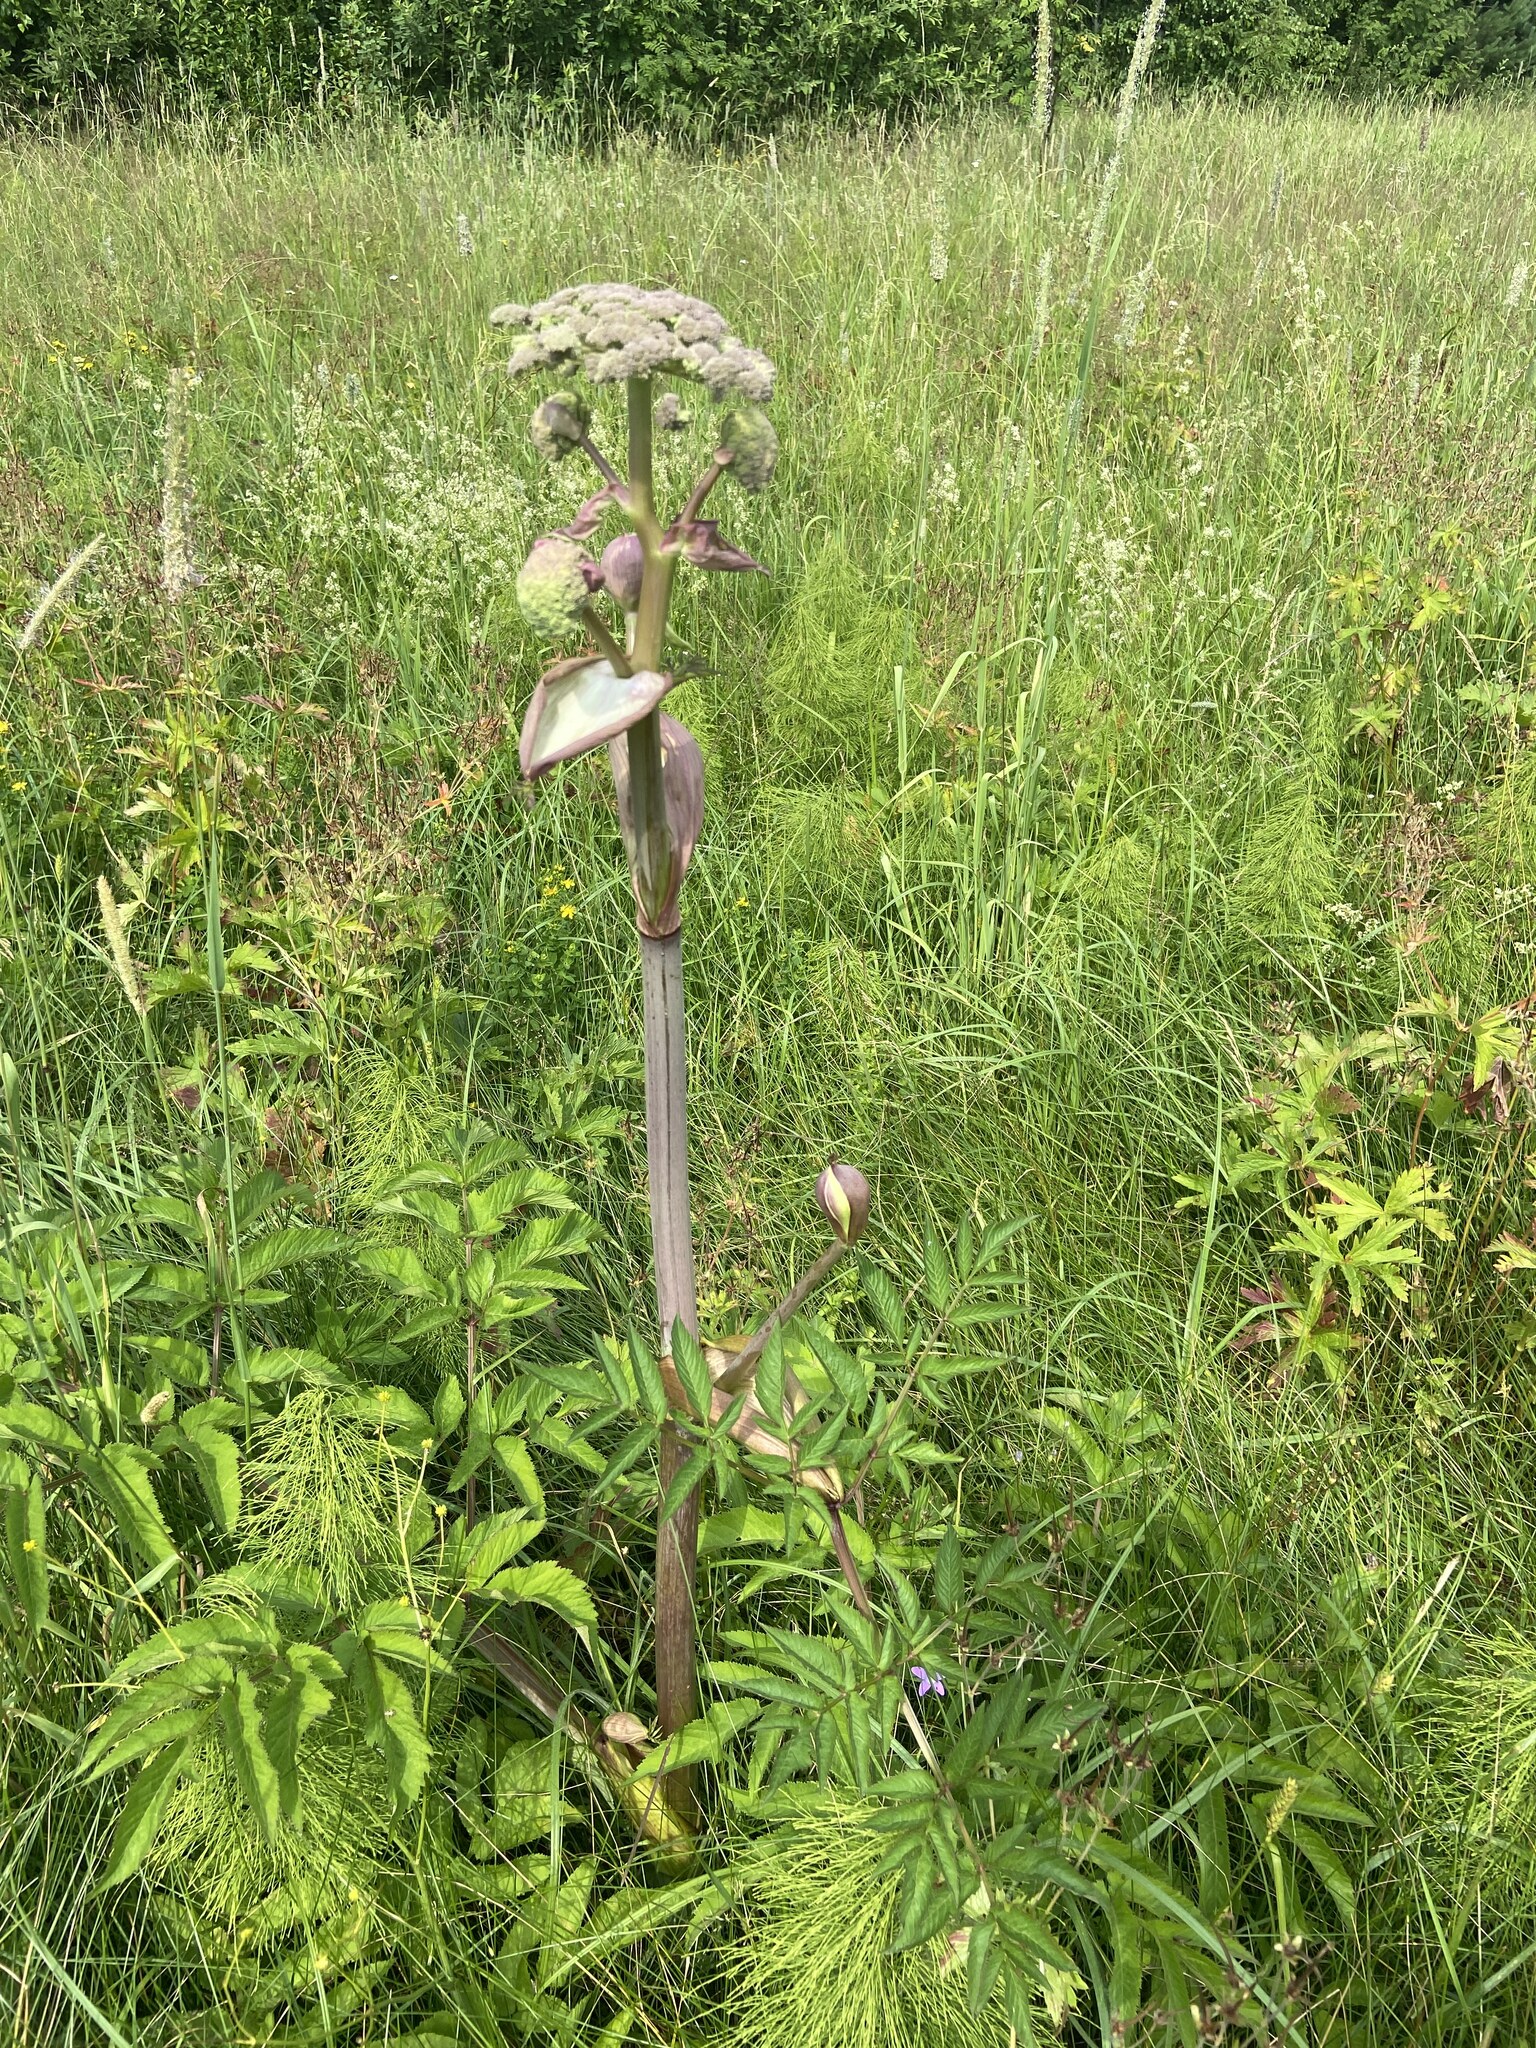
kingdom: Plantae
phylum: Tracheophyta
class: Magnoliopsida
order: Apiales
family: Apiaceae
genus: Angelica
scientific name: Angelica sylvestris
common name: Wild angelica
